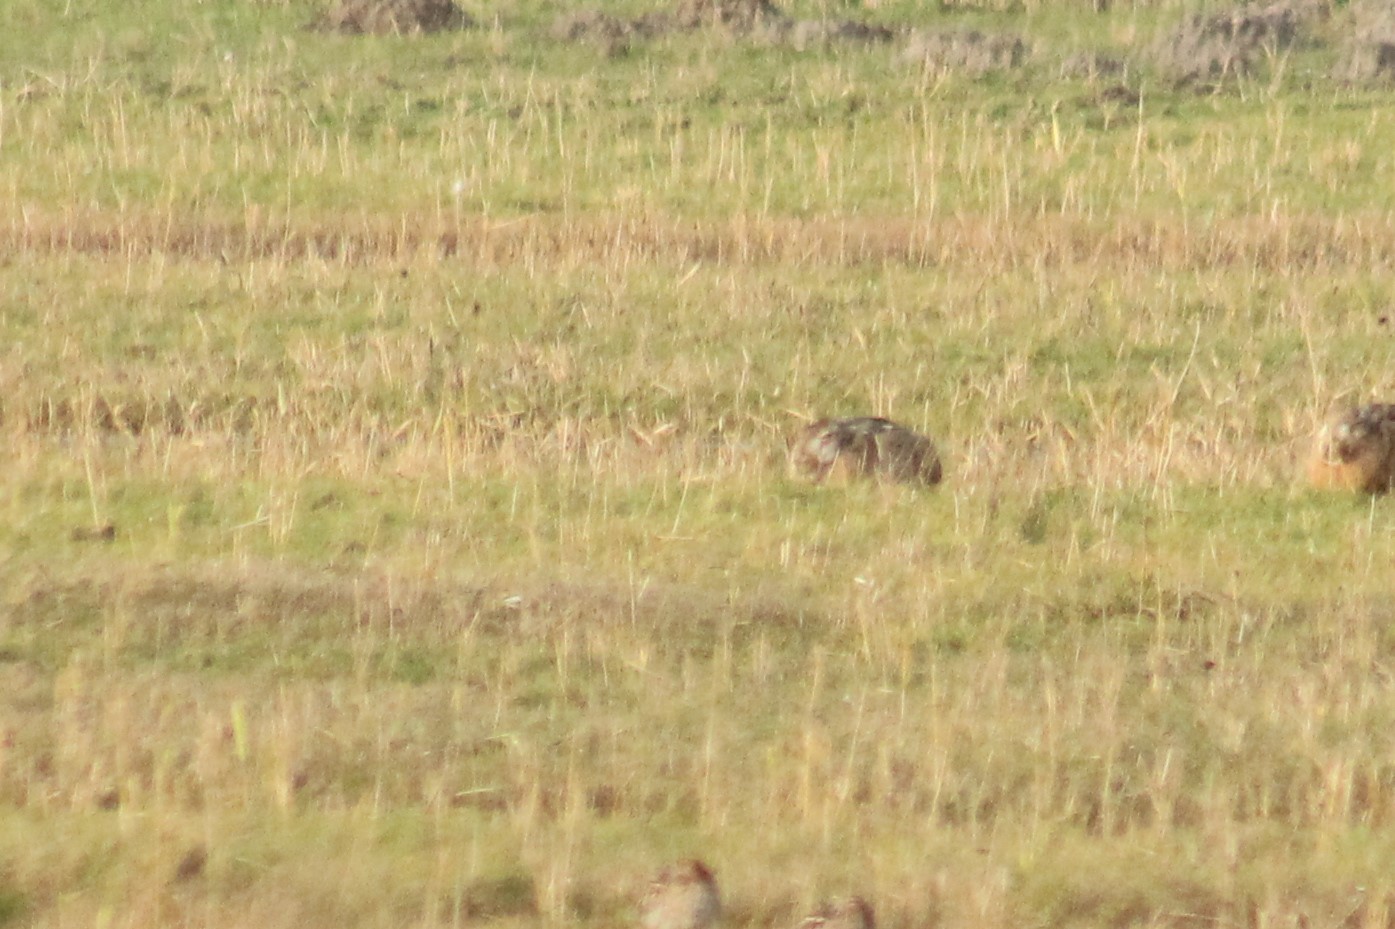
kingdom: Animalia
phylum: Chordata
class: Mammalia
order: Lagomorpha
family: Leporidae
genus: Lepus
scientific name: Lepus europaeus
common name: European hare
